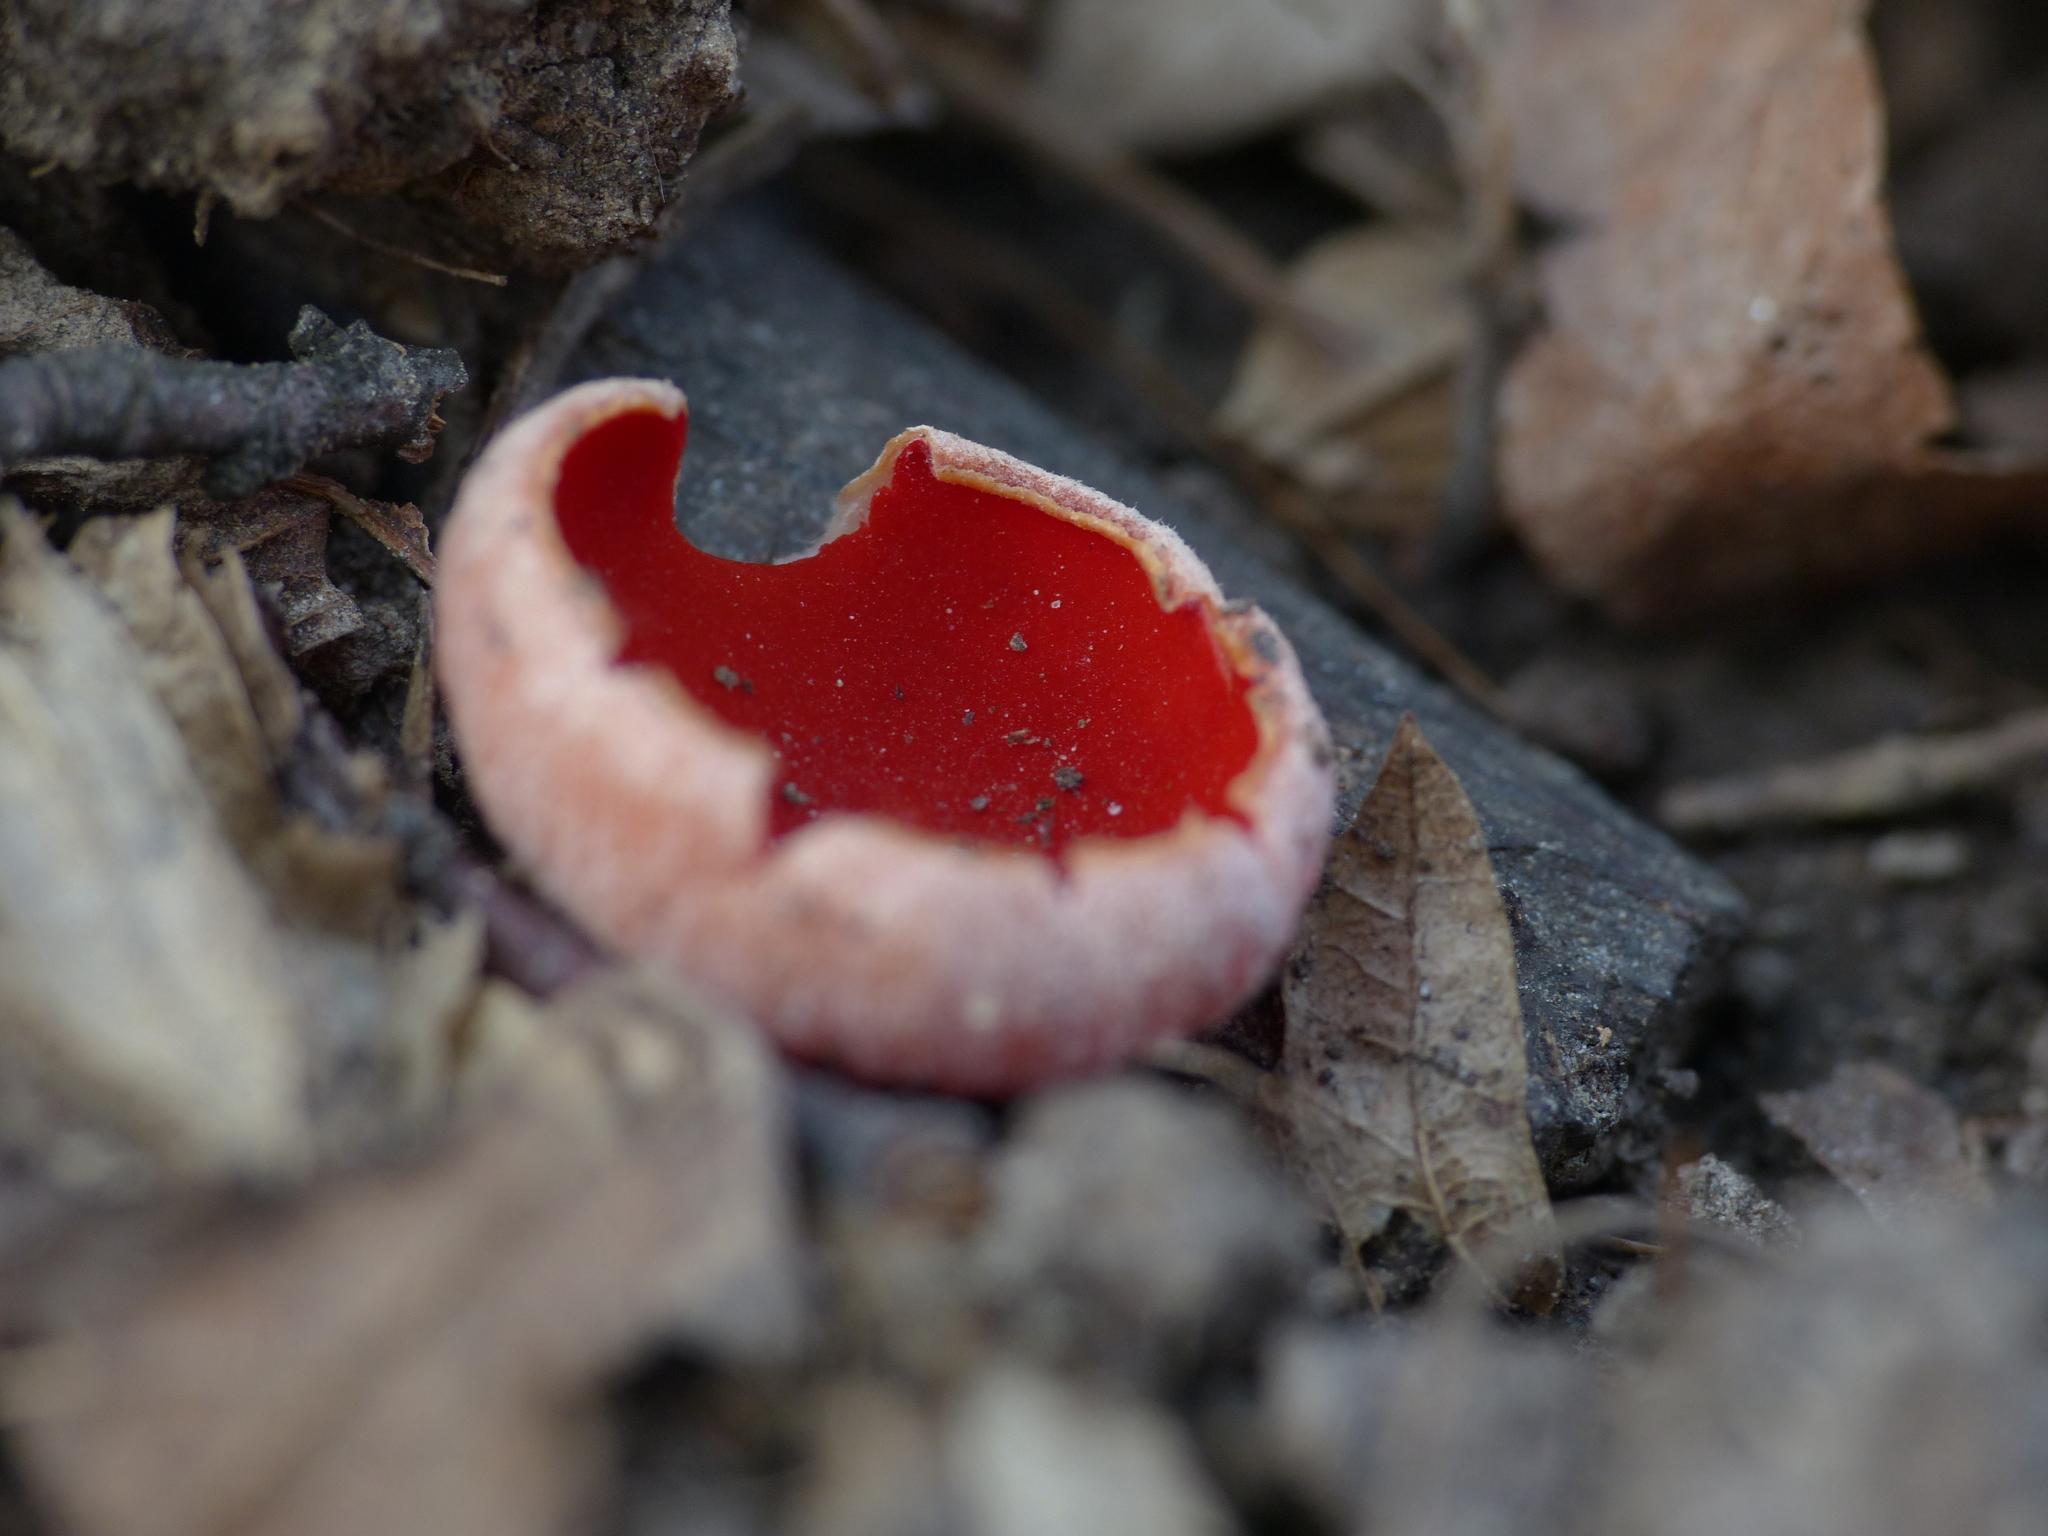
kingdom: Fungi
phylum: Ascomycota
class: Pezizomycetes
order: Pezizales
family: Sarcoscyphaceae
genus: Sarcoscypha
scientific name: Sarcoscypha
